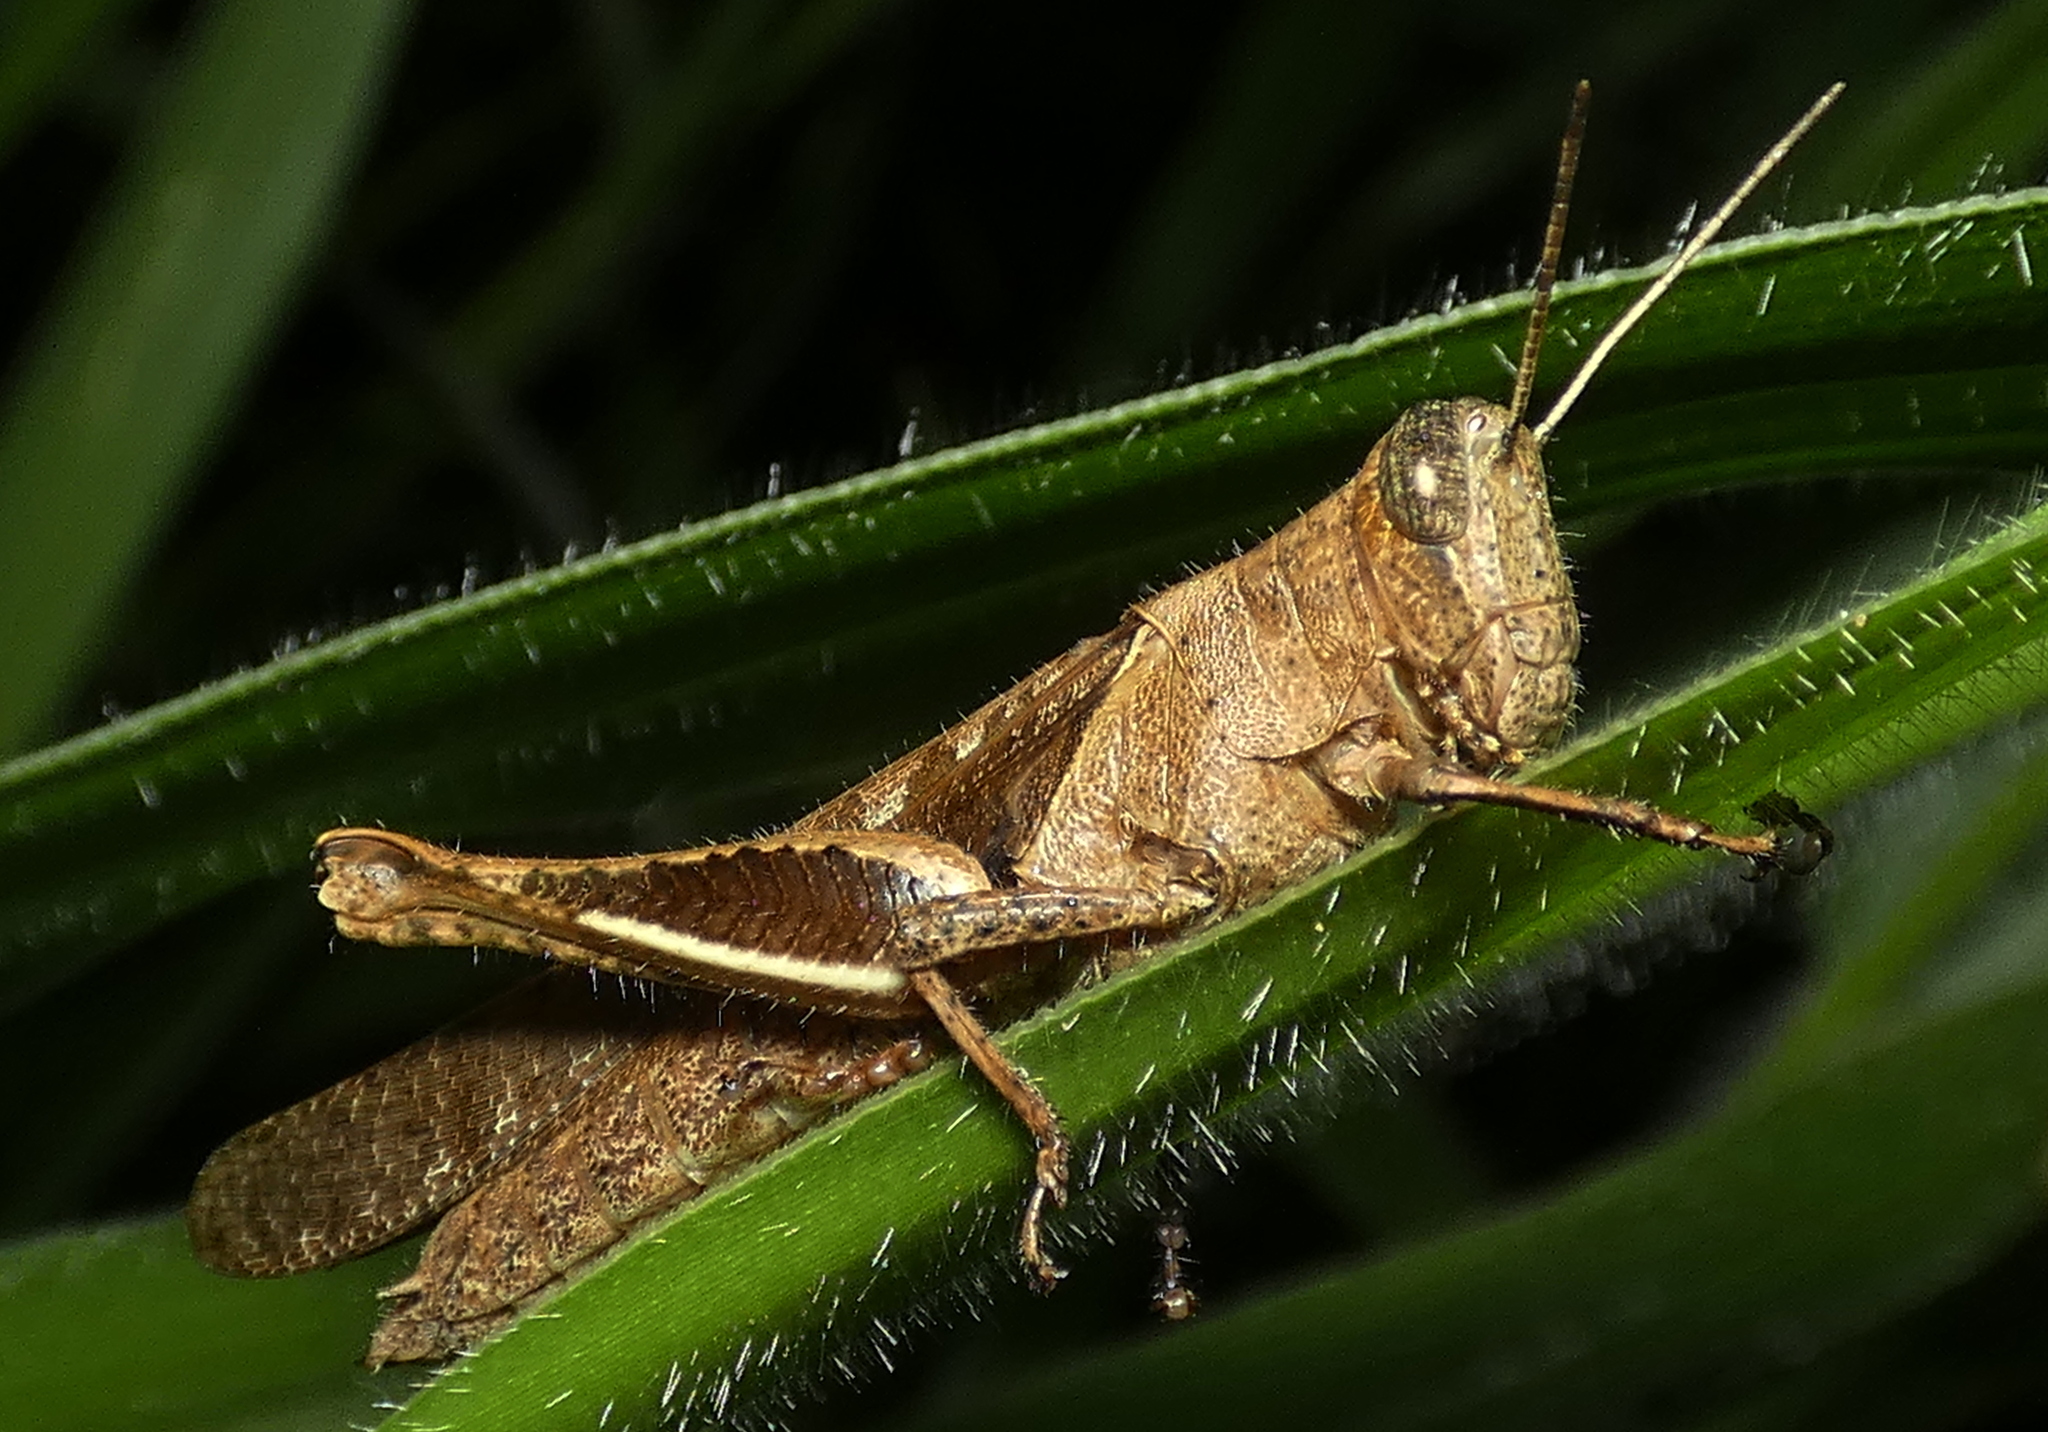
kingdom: Animalia
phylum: Arthropoda
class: Insecta
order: Orthoptera
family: Acrididae
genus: Abracris
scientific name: Abracris flavolineata
